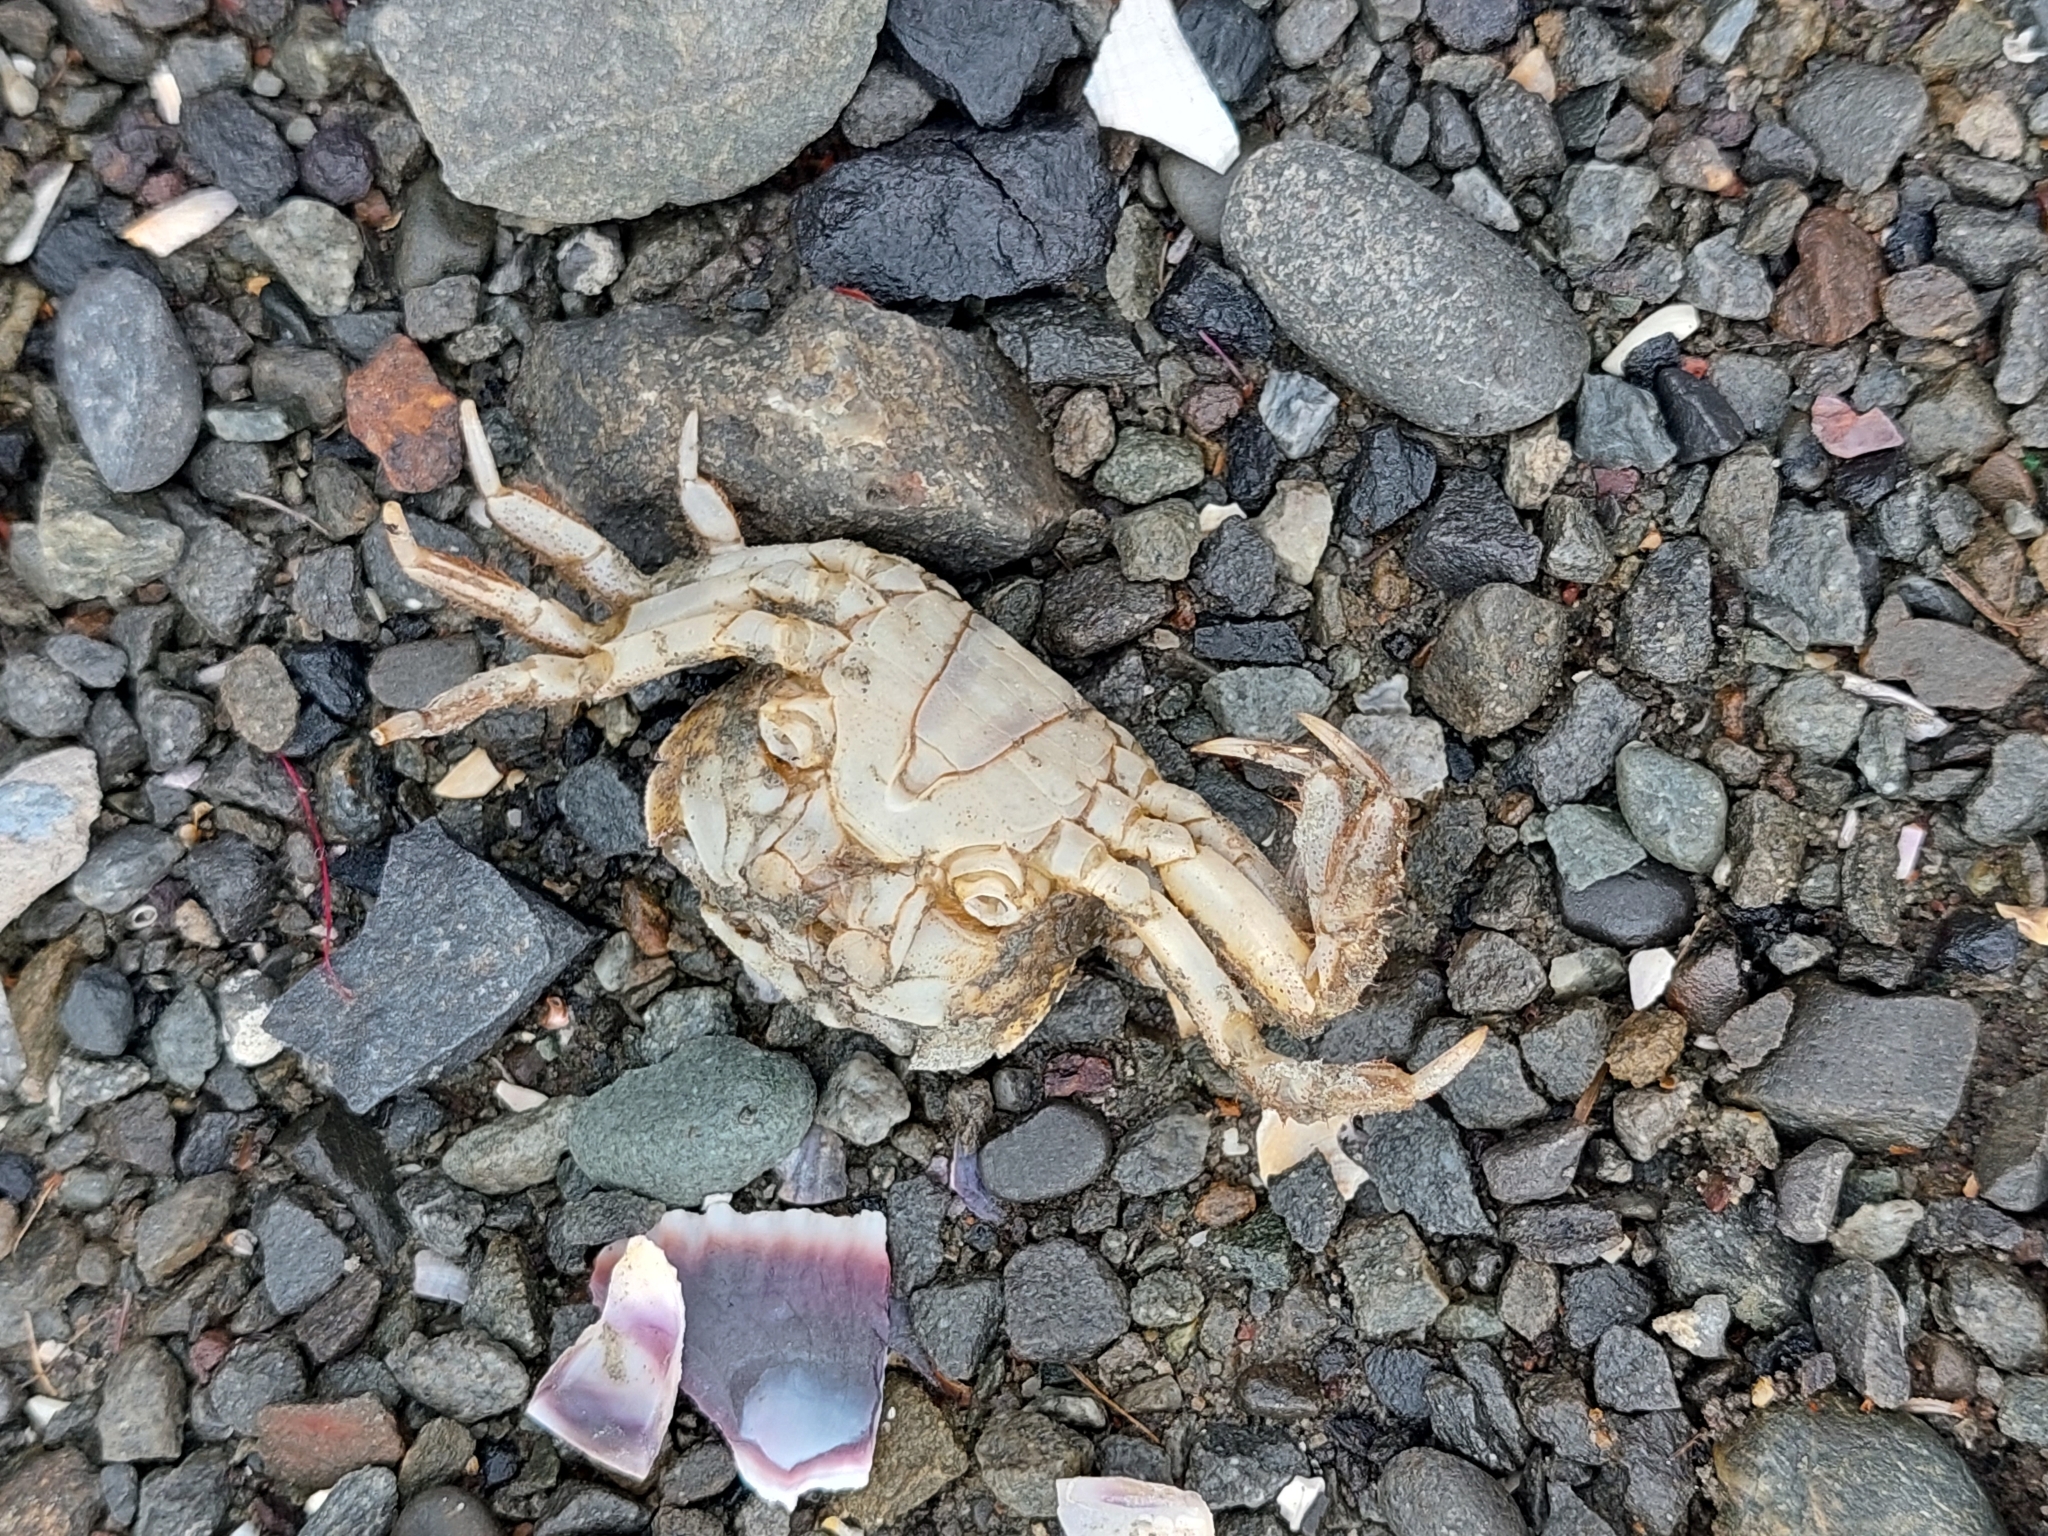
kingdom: Animalia
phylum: Arthropoda
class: Malacostraca
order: Decapoda
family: Varunidae
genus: Hemigrapsus
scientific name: Hemigrapsus crenulatus
